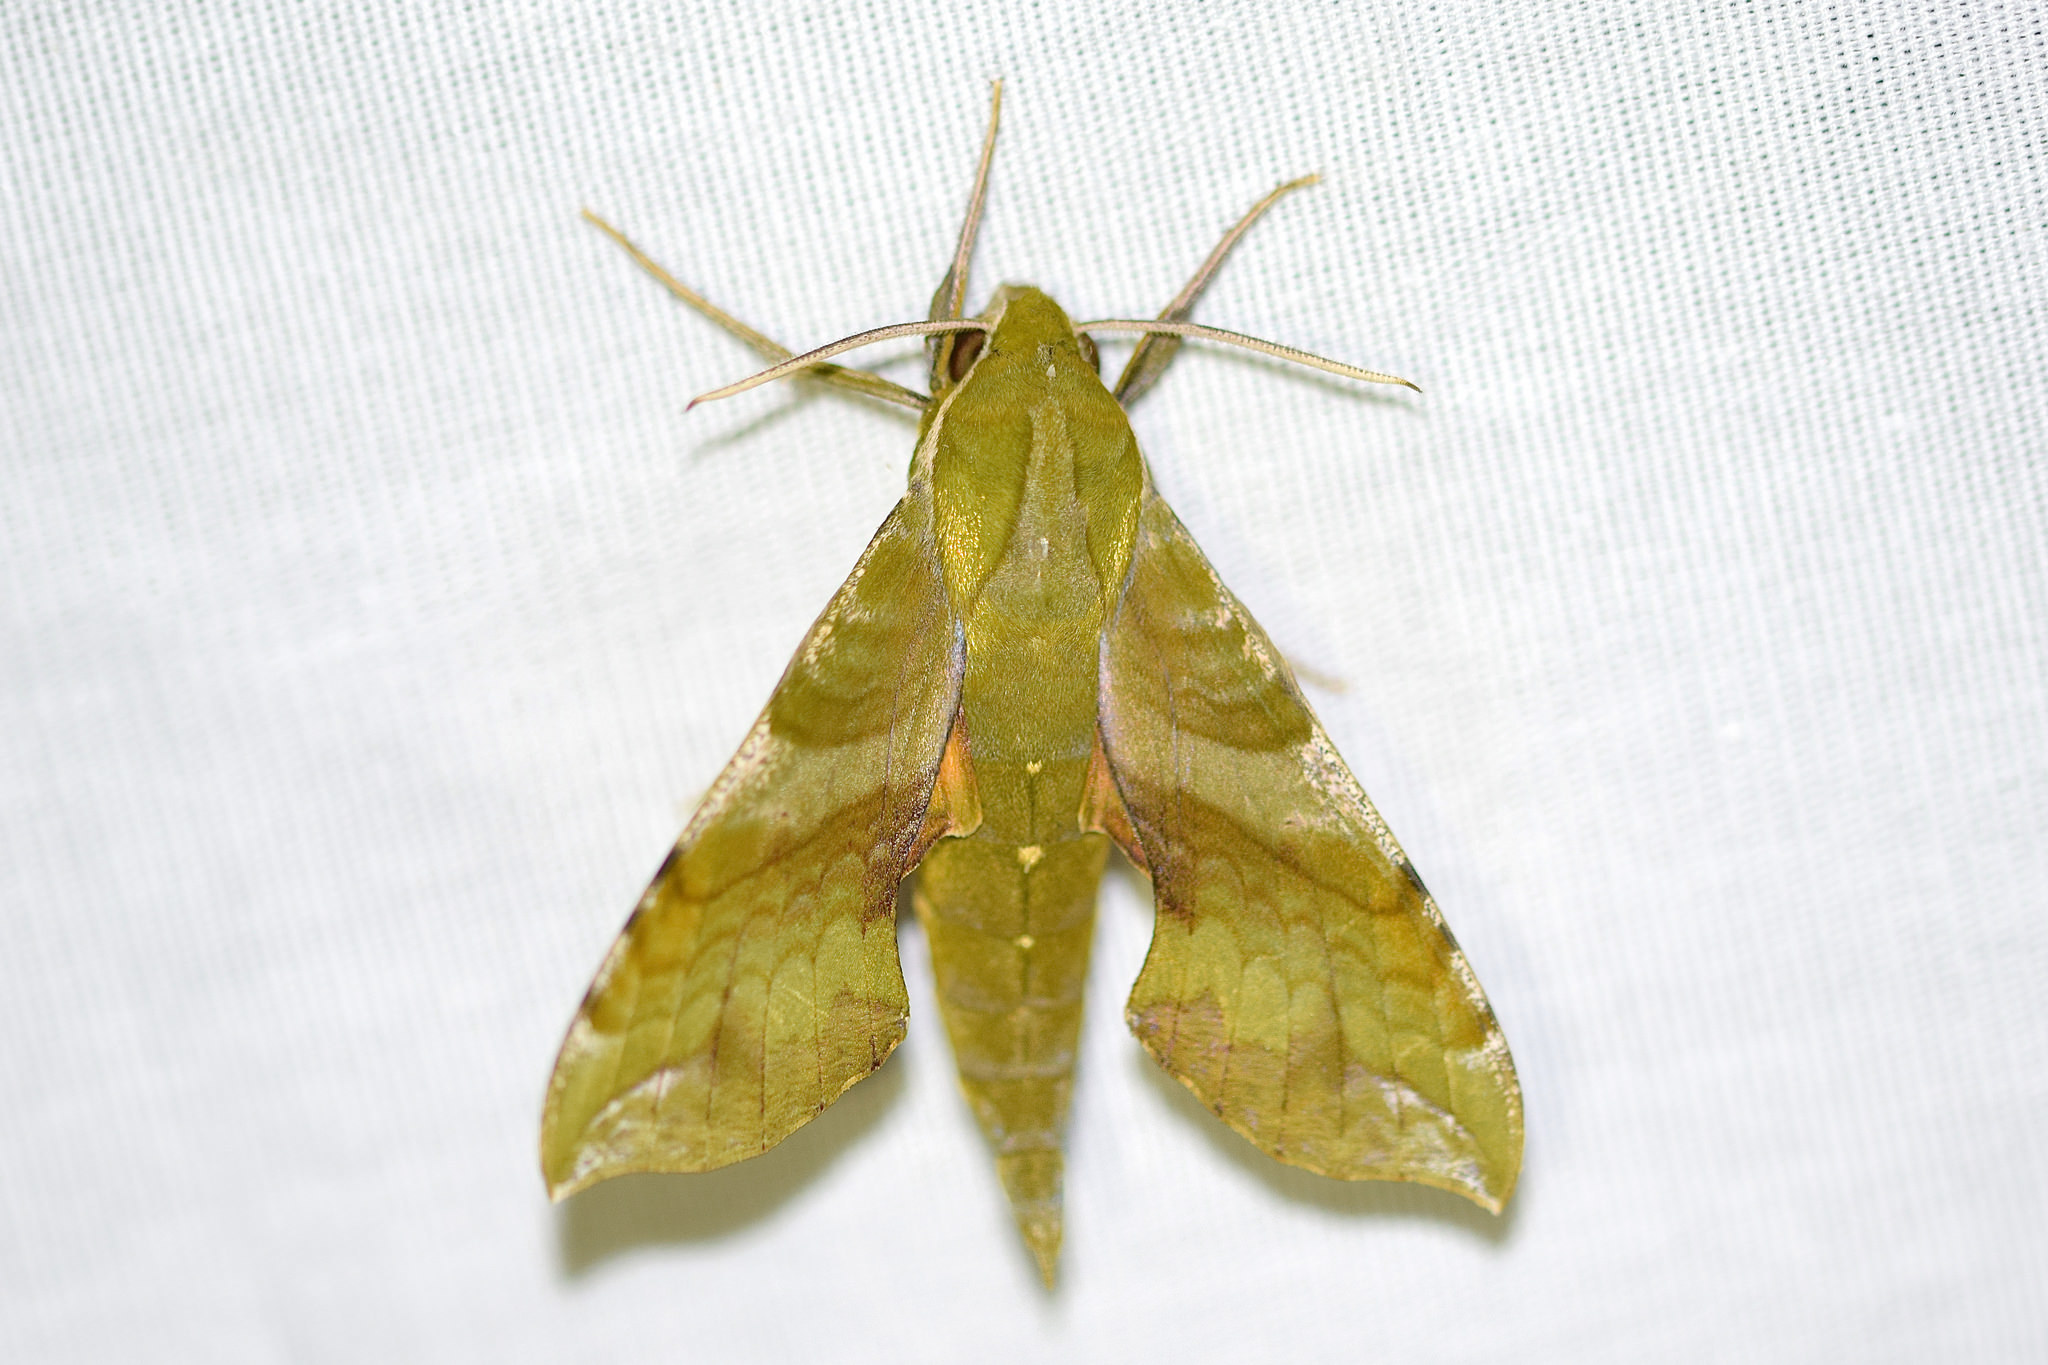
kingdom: Animalia
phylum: Arthropoda
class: Insecta
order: Lepidoptera
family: Sphingidae
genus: Xylophanes
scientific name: Xylophanes pluto
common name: Pluto sphinx
